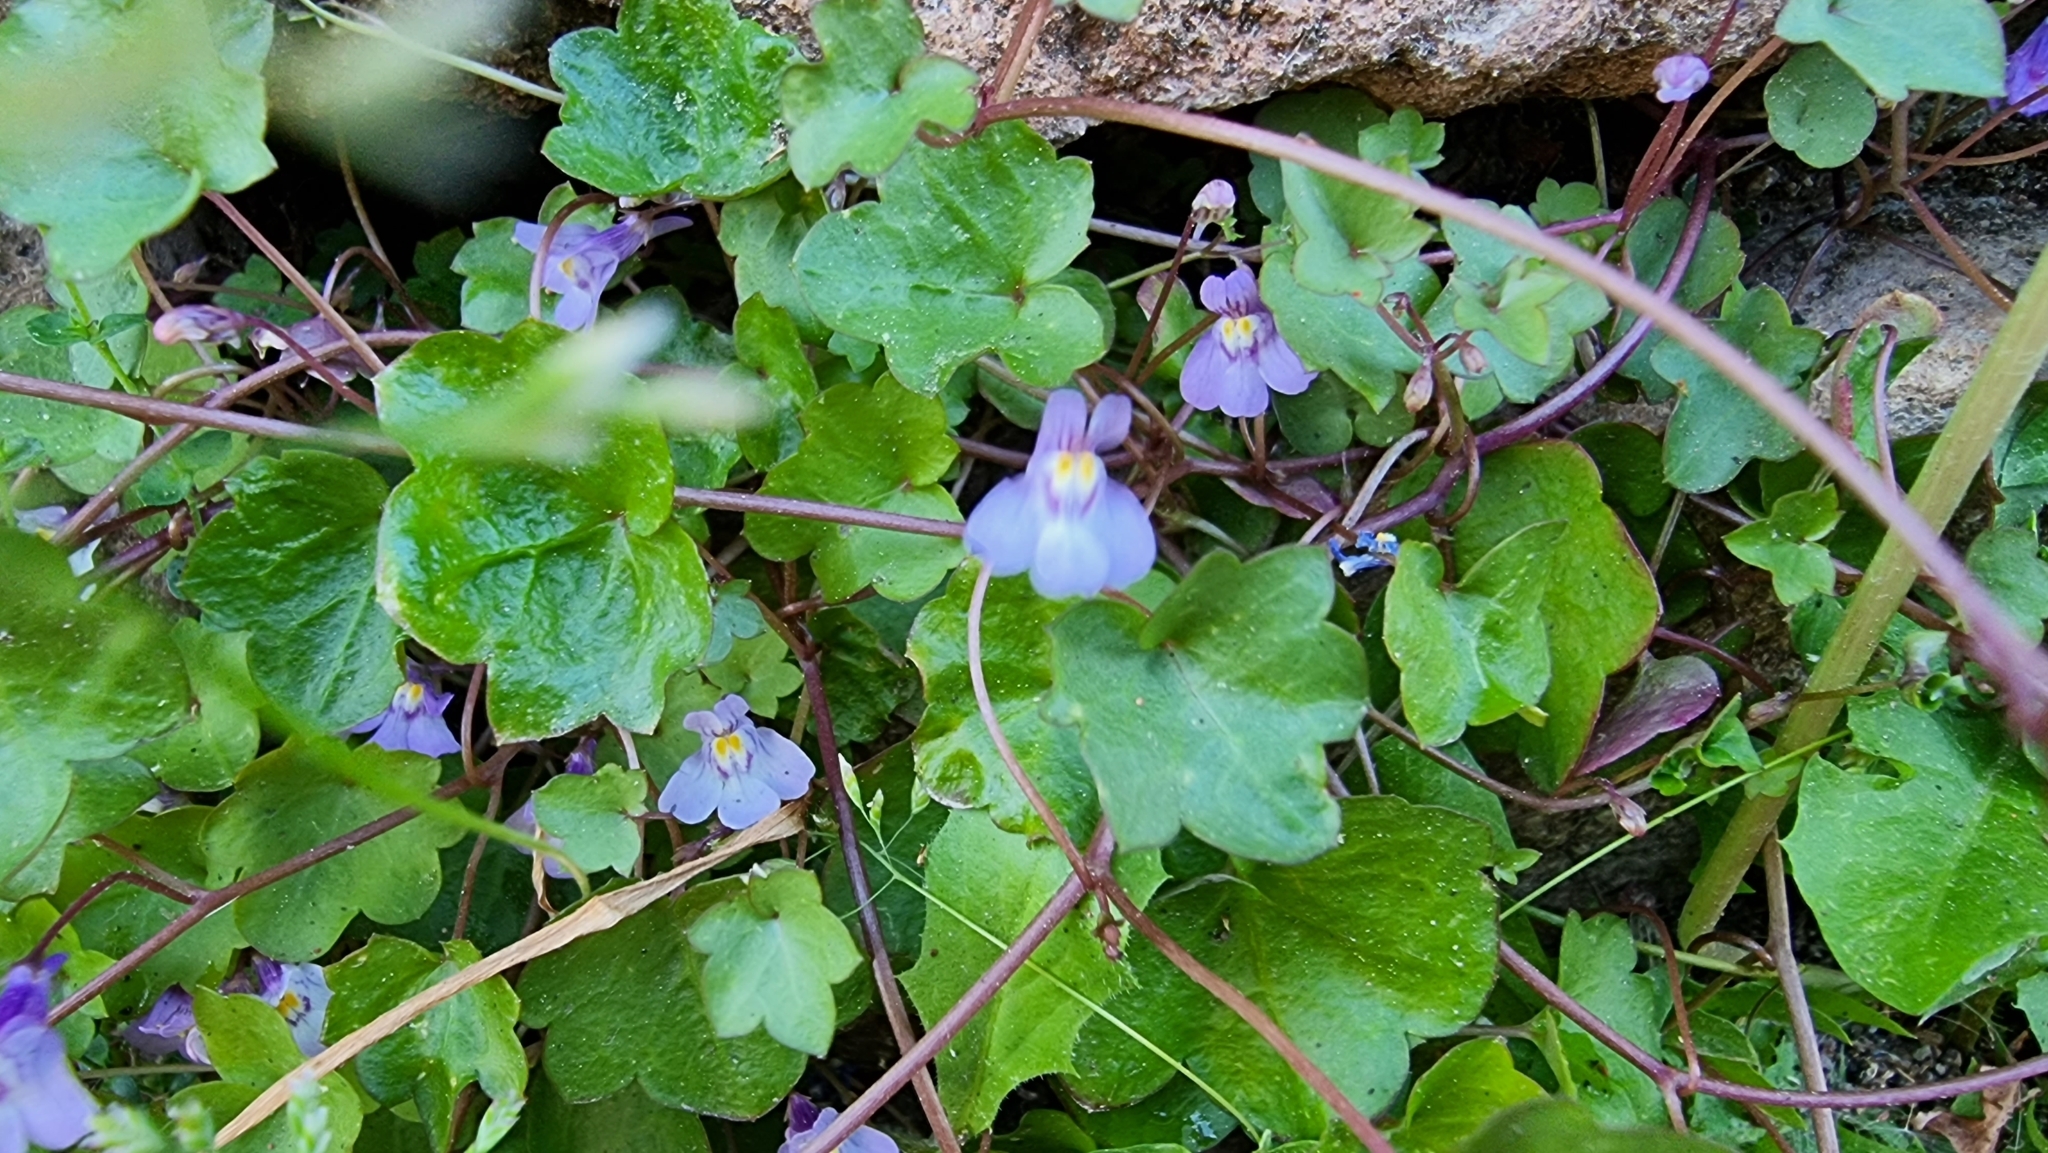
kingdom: Plantae
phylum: Tracheophyta
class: Magnoliopsida
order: Lamiales
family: Plantaginaceae
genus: Cymbalaria
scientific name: Cymbalaria muralis
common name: Ivy-leaved toadflax
